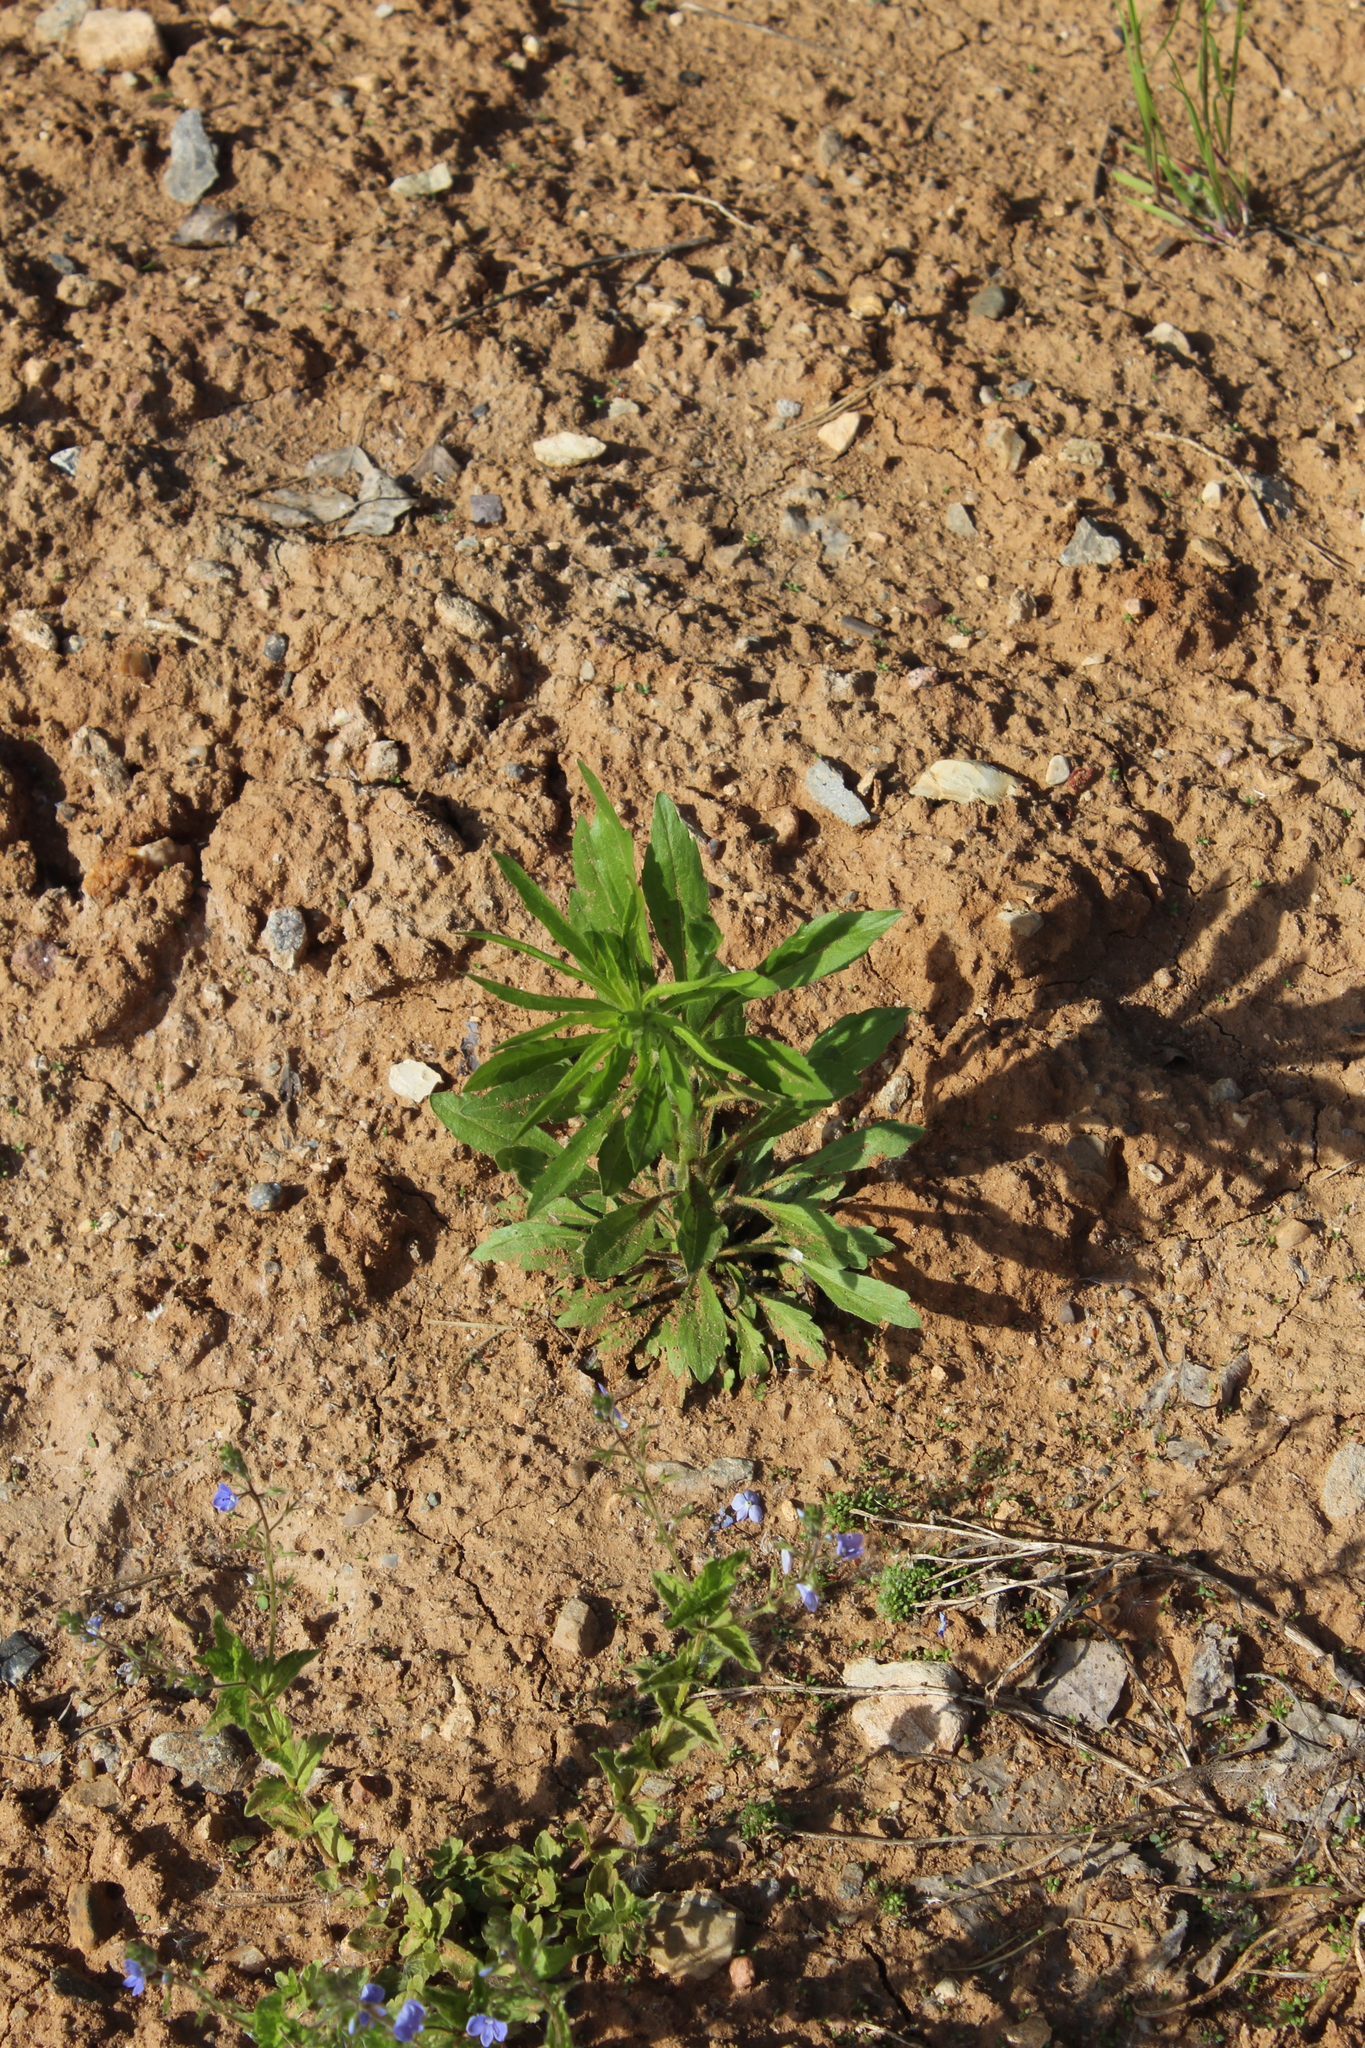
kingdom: Plantae
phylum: Tracheophyta
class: Magnoliopsida
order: Asterales
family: Asteraceae
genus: Erigeron
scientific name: Erigeron canadensis
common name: Canadian fleabane
